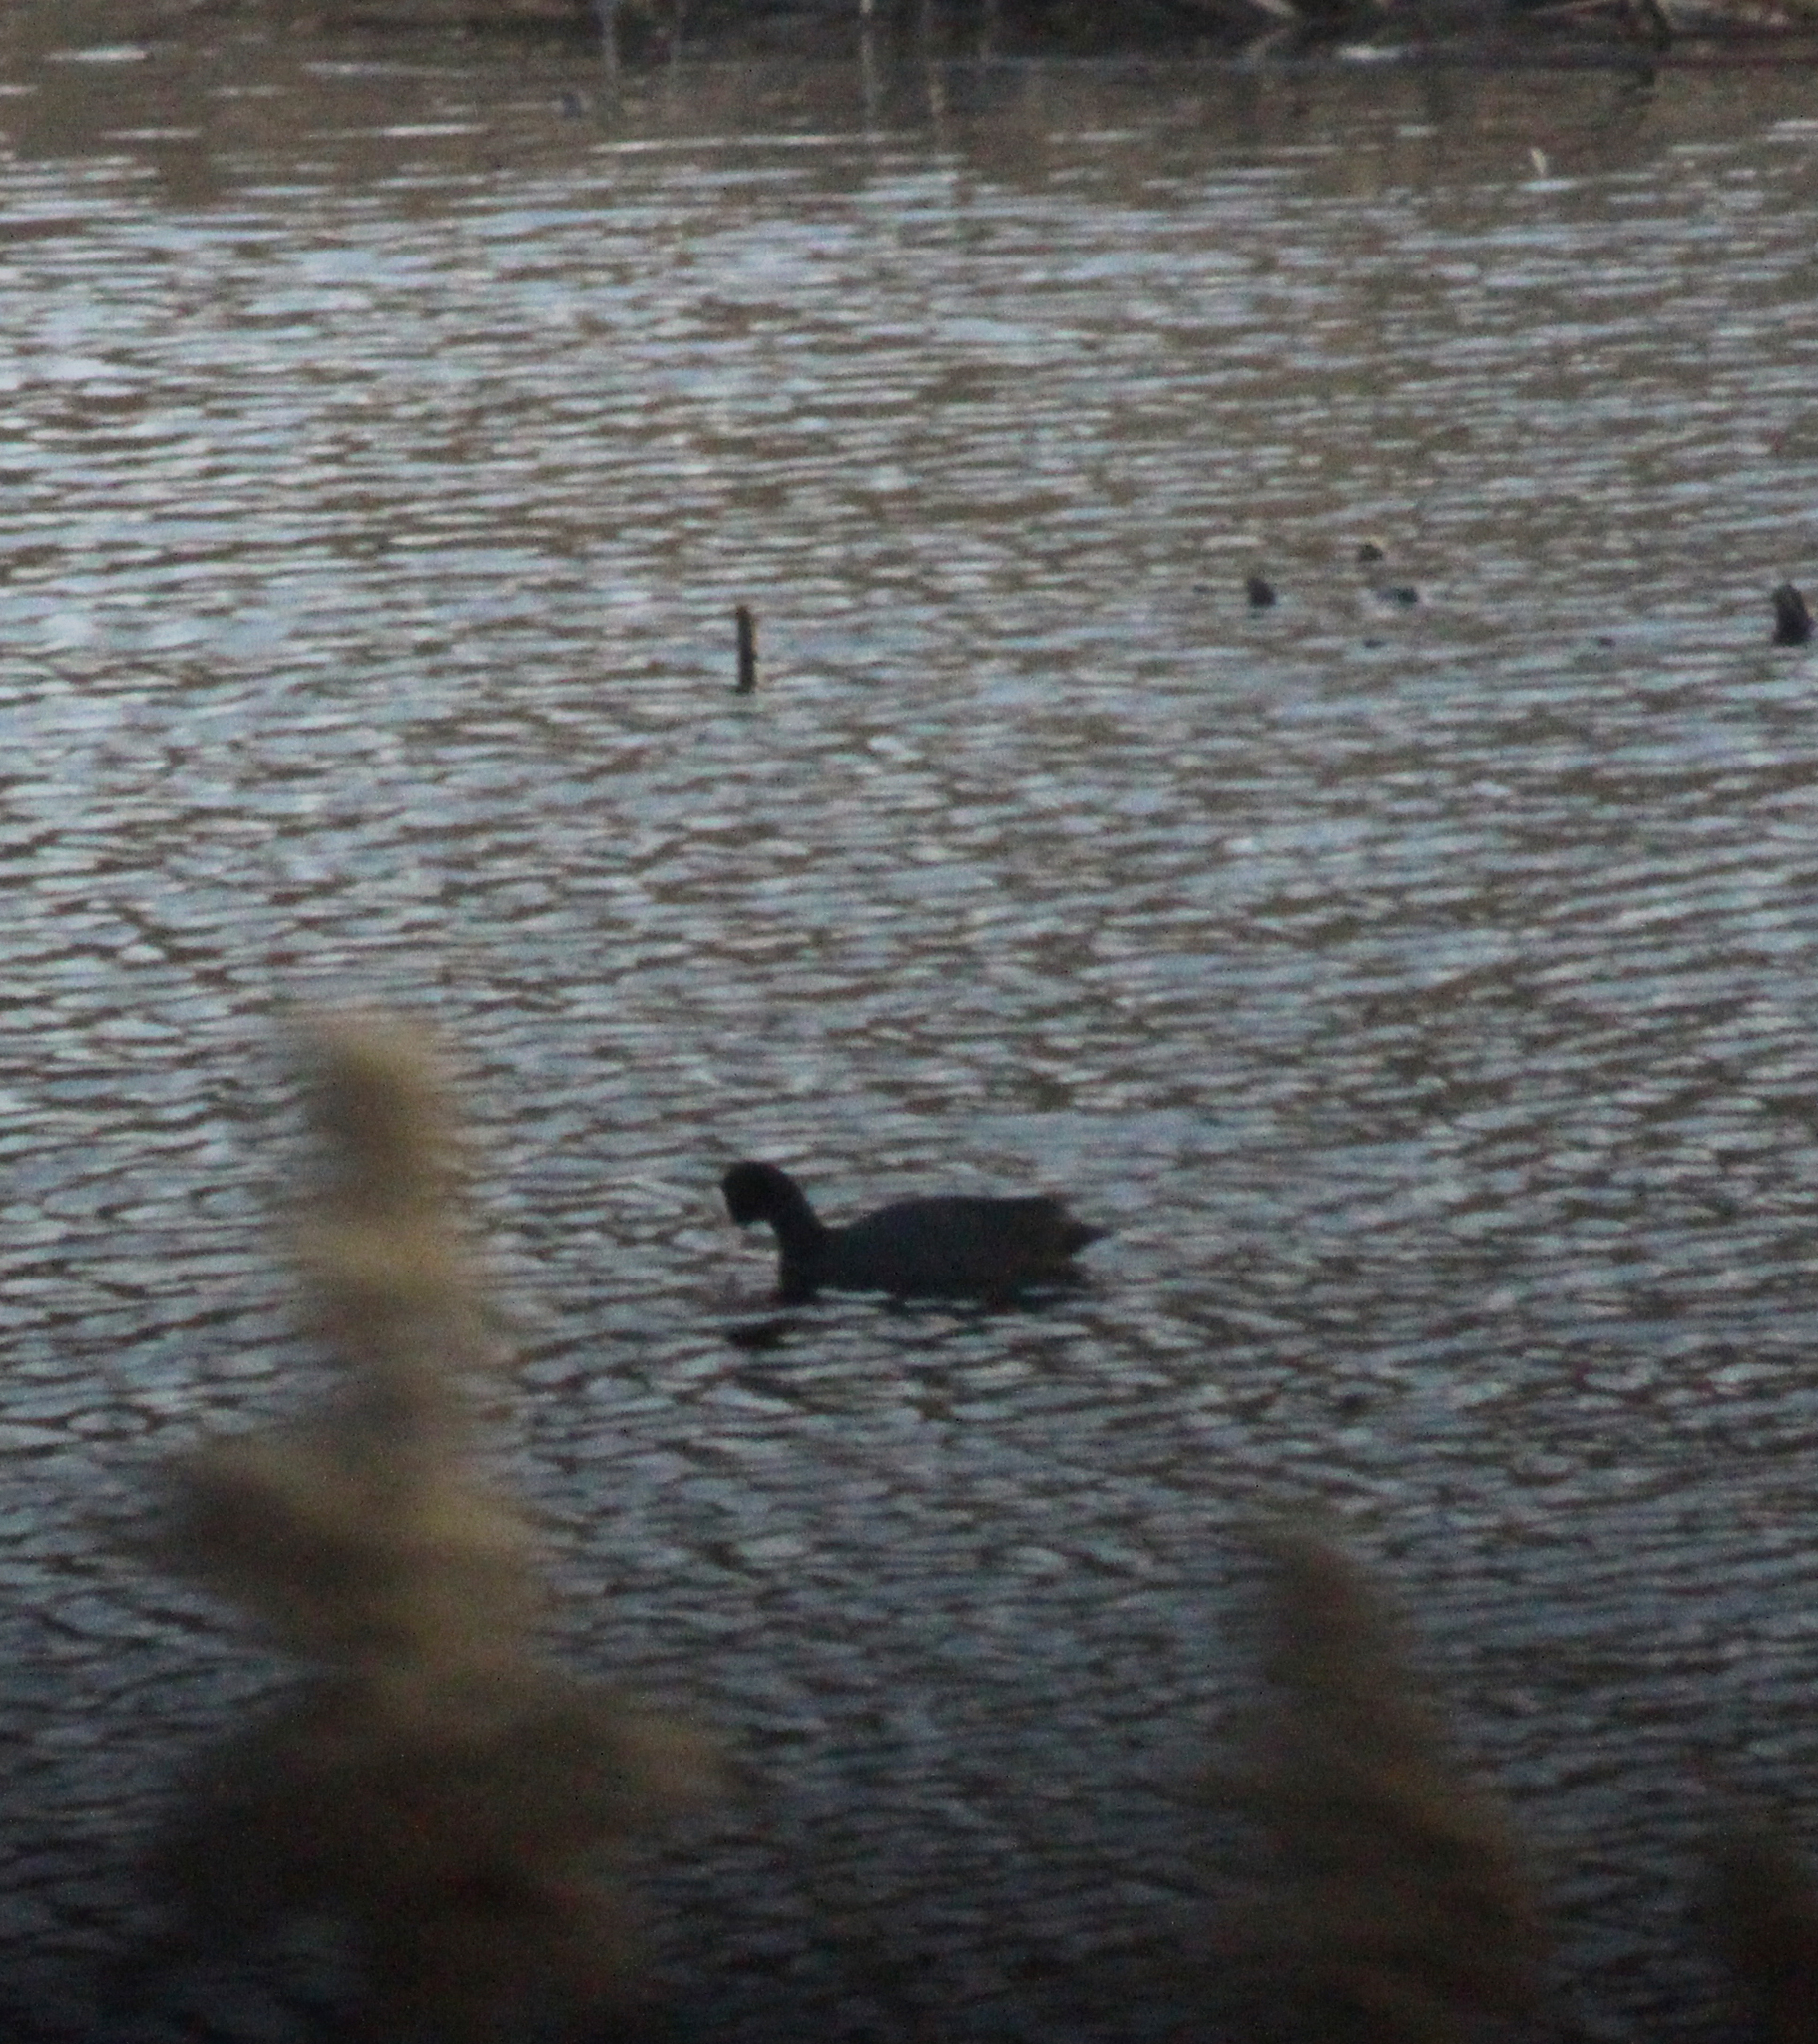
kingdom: Animalia
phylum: Chordata
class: Aves
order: Gruiformes
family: Rallidae
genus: Fulica
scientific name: Fulica atra
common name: Eurasian coot
